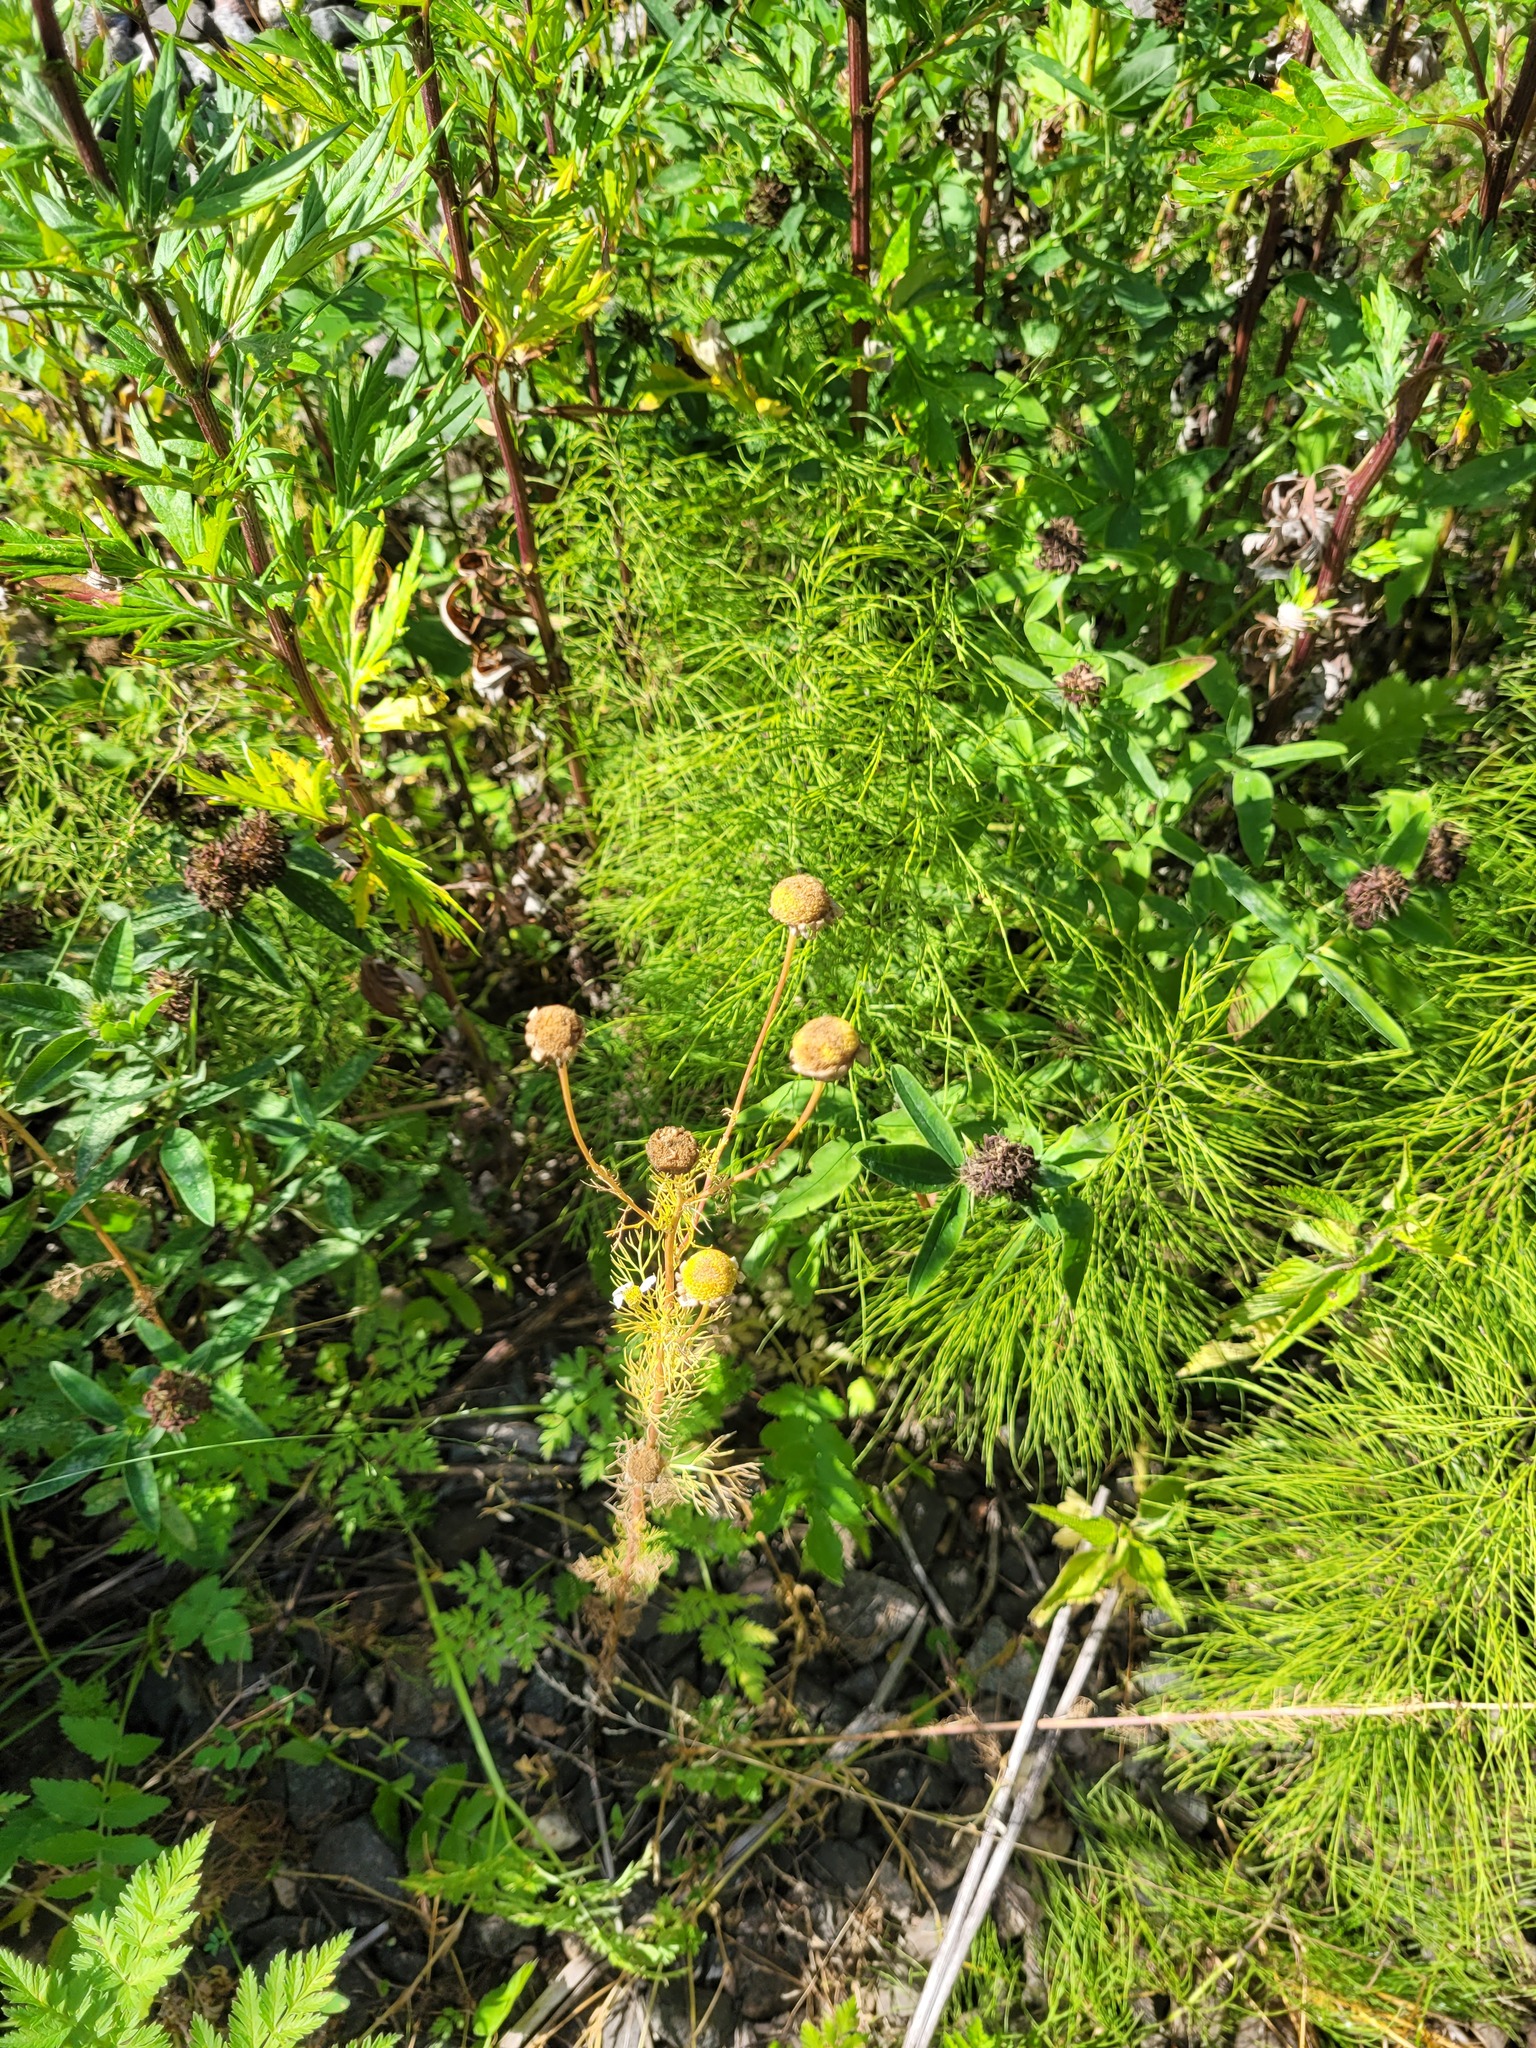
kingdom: Plantae
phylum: Tracheophyta
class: Magnoliopsida
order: Asterales
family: Asteraceae
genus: Tripleurospermum
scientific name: Tripleurospermum inodorum
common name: Scentless mayweed
